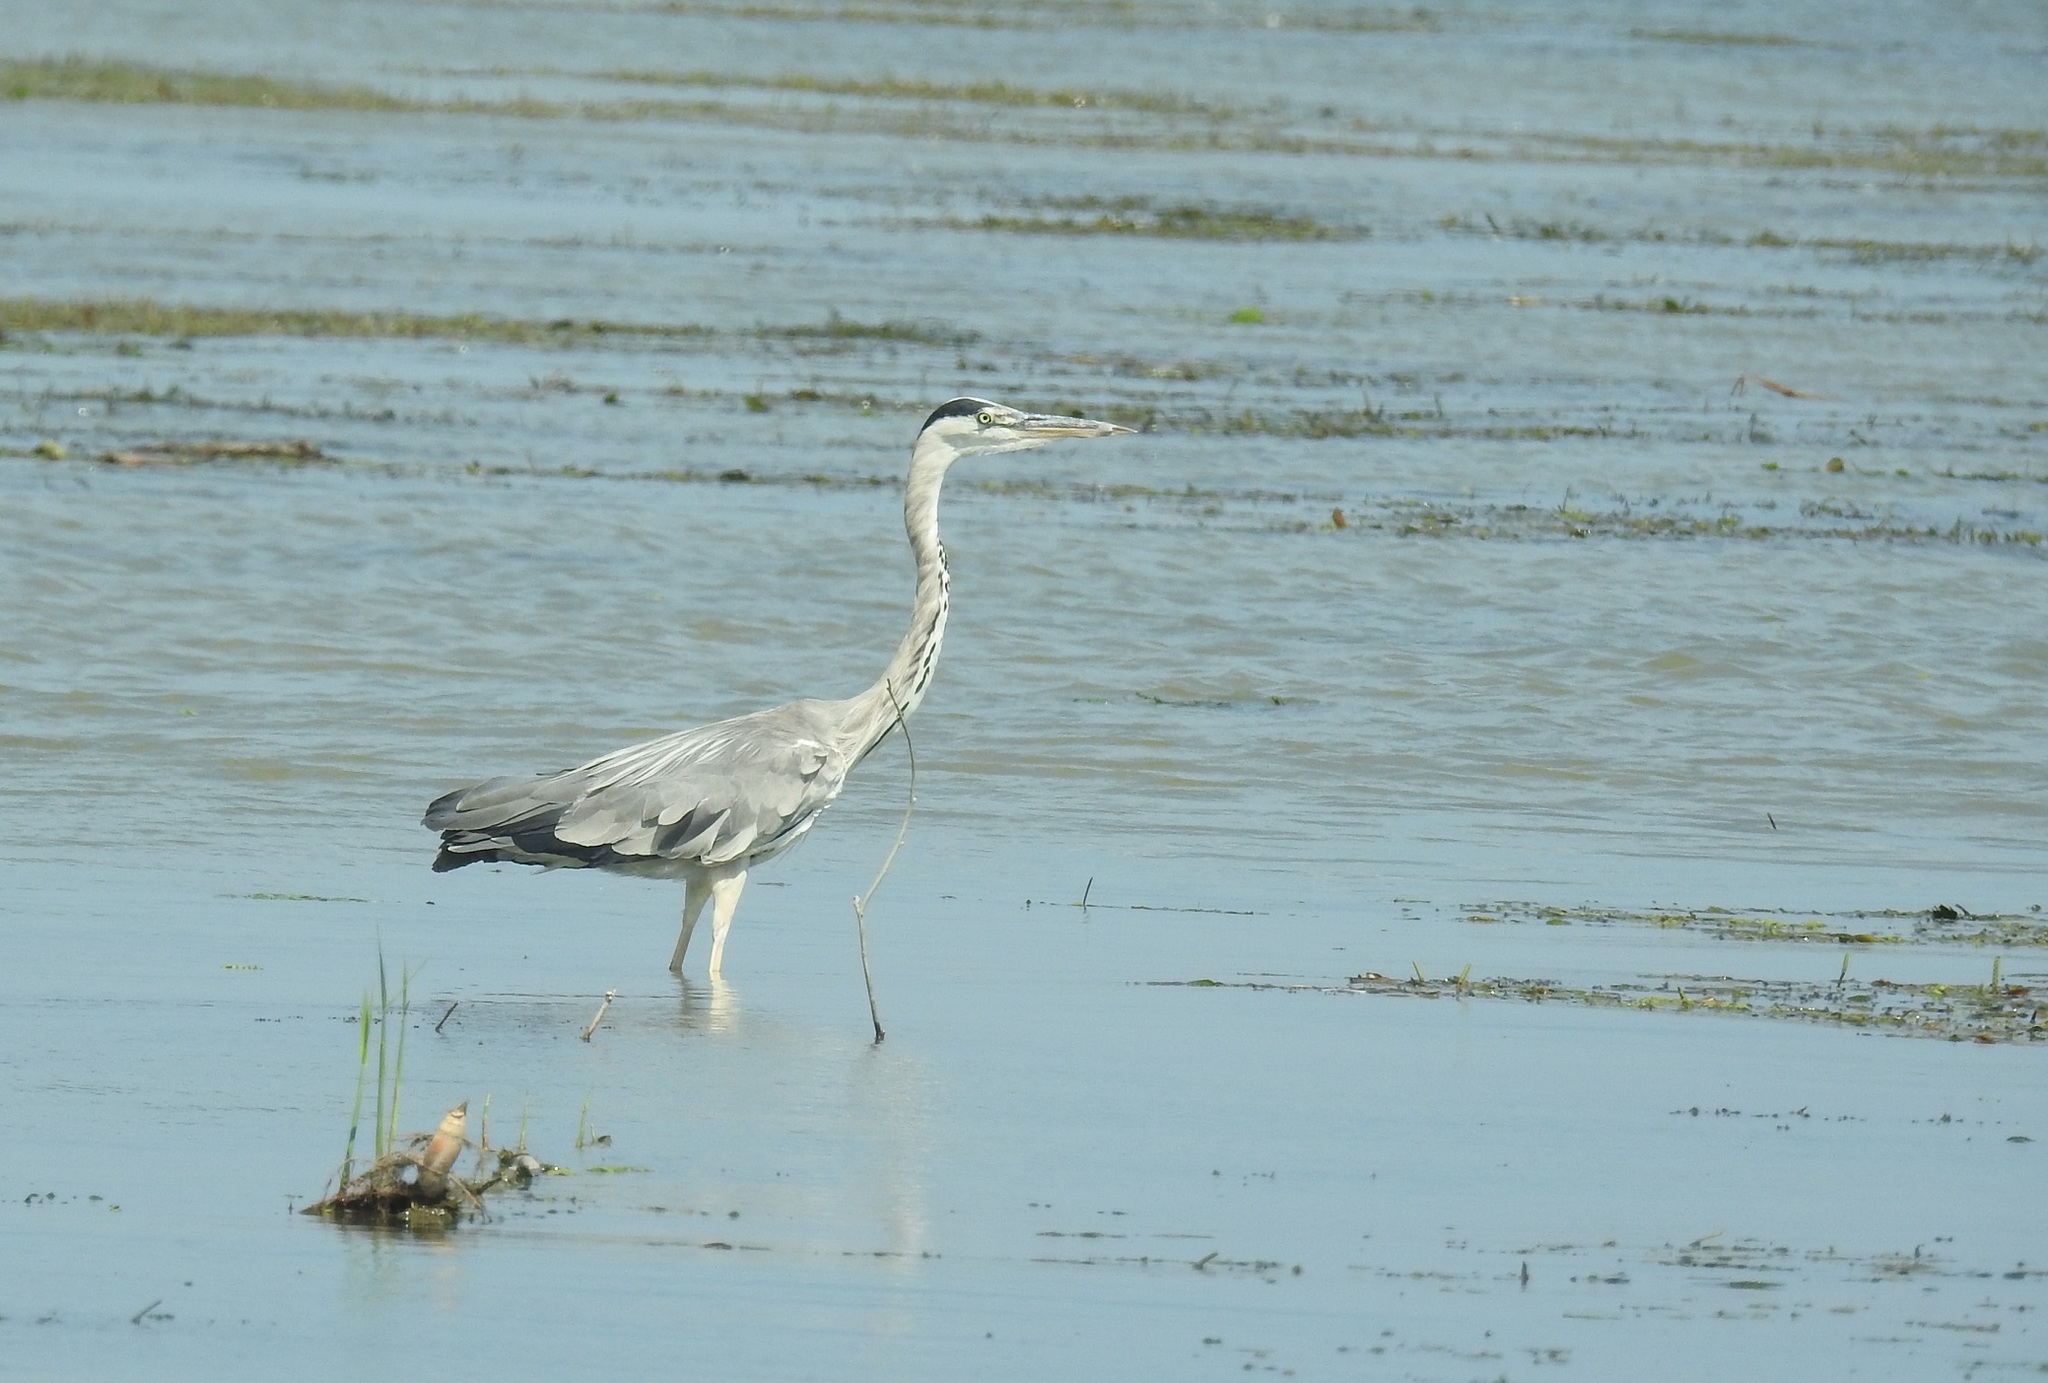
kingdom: Animalia
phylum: Chordata
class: Aves
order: Pelecaniformes
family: Ardeidae
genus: Ardea
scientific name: Ardea cinerea
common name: Grey heron
